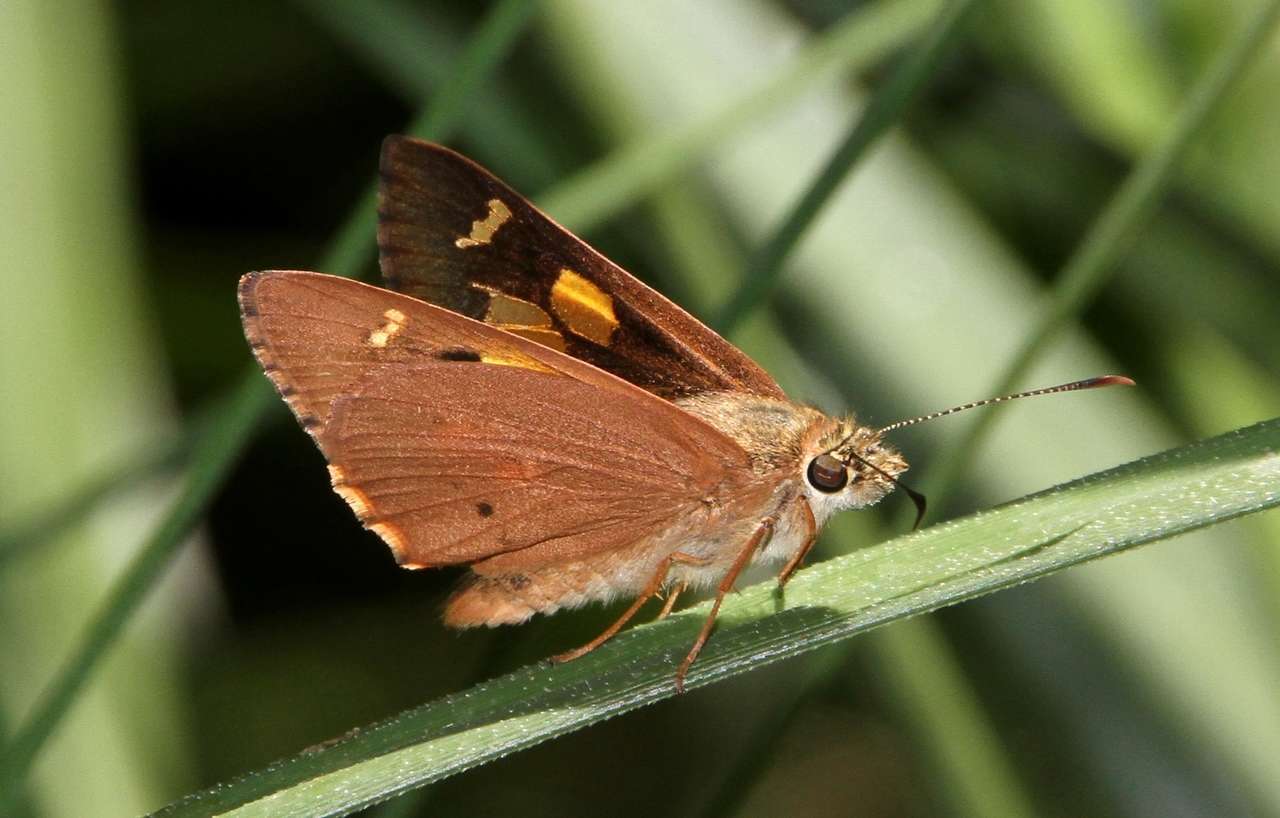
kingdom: Animalia
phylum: Arthropoda
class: Insecta
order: Lepidoptera
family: Hesperiidae
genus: Hesperilla
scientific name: Hesperilla idothea
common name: Flame sedge-skipper
